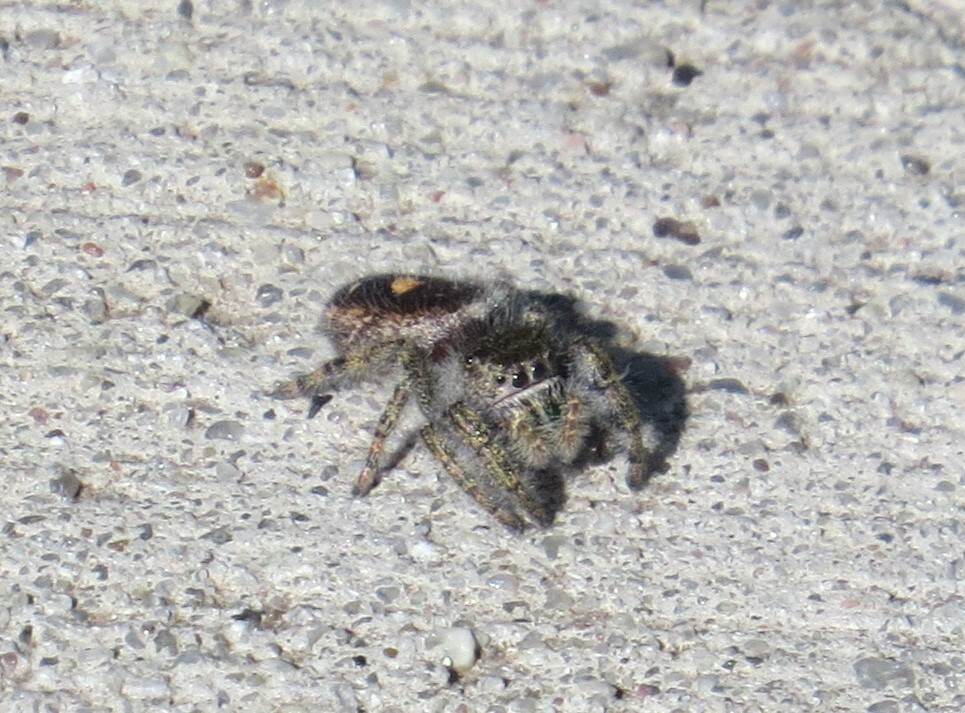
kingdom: Animalia
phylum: Arthropoda
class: Arachnida
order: Araneae
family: Salticidae
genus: Phidippus
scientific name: Phidippus audax
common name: Bold jumper
